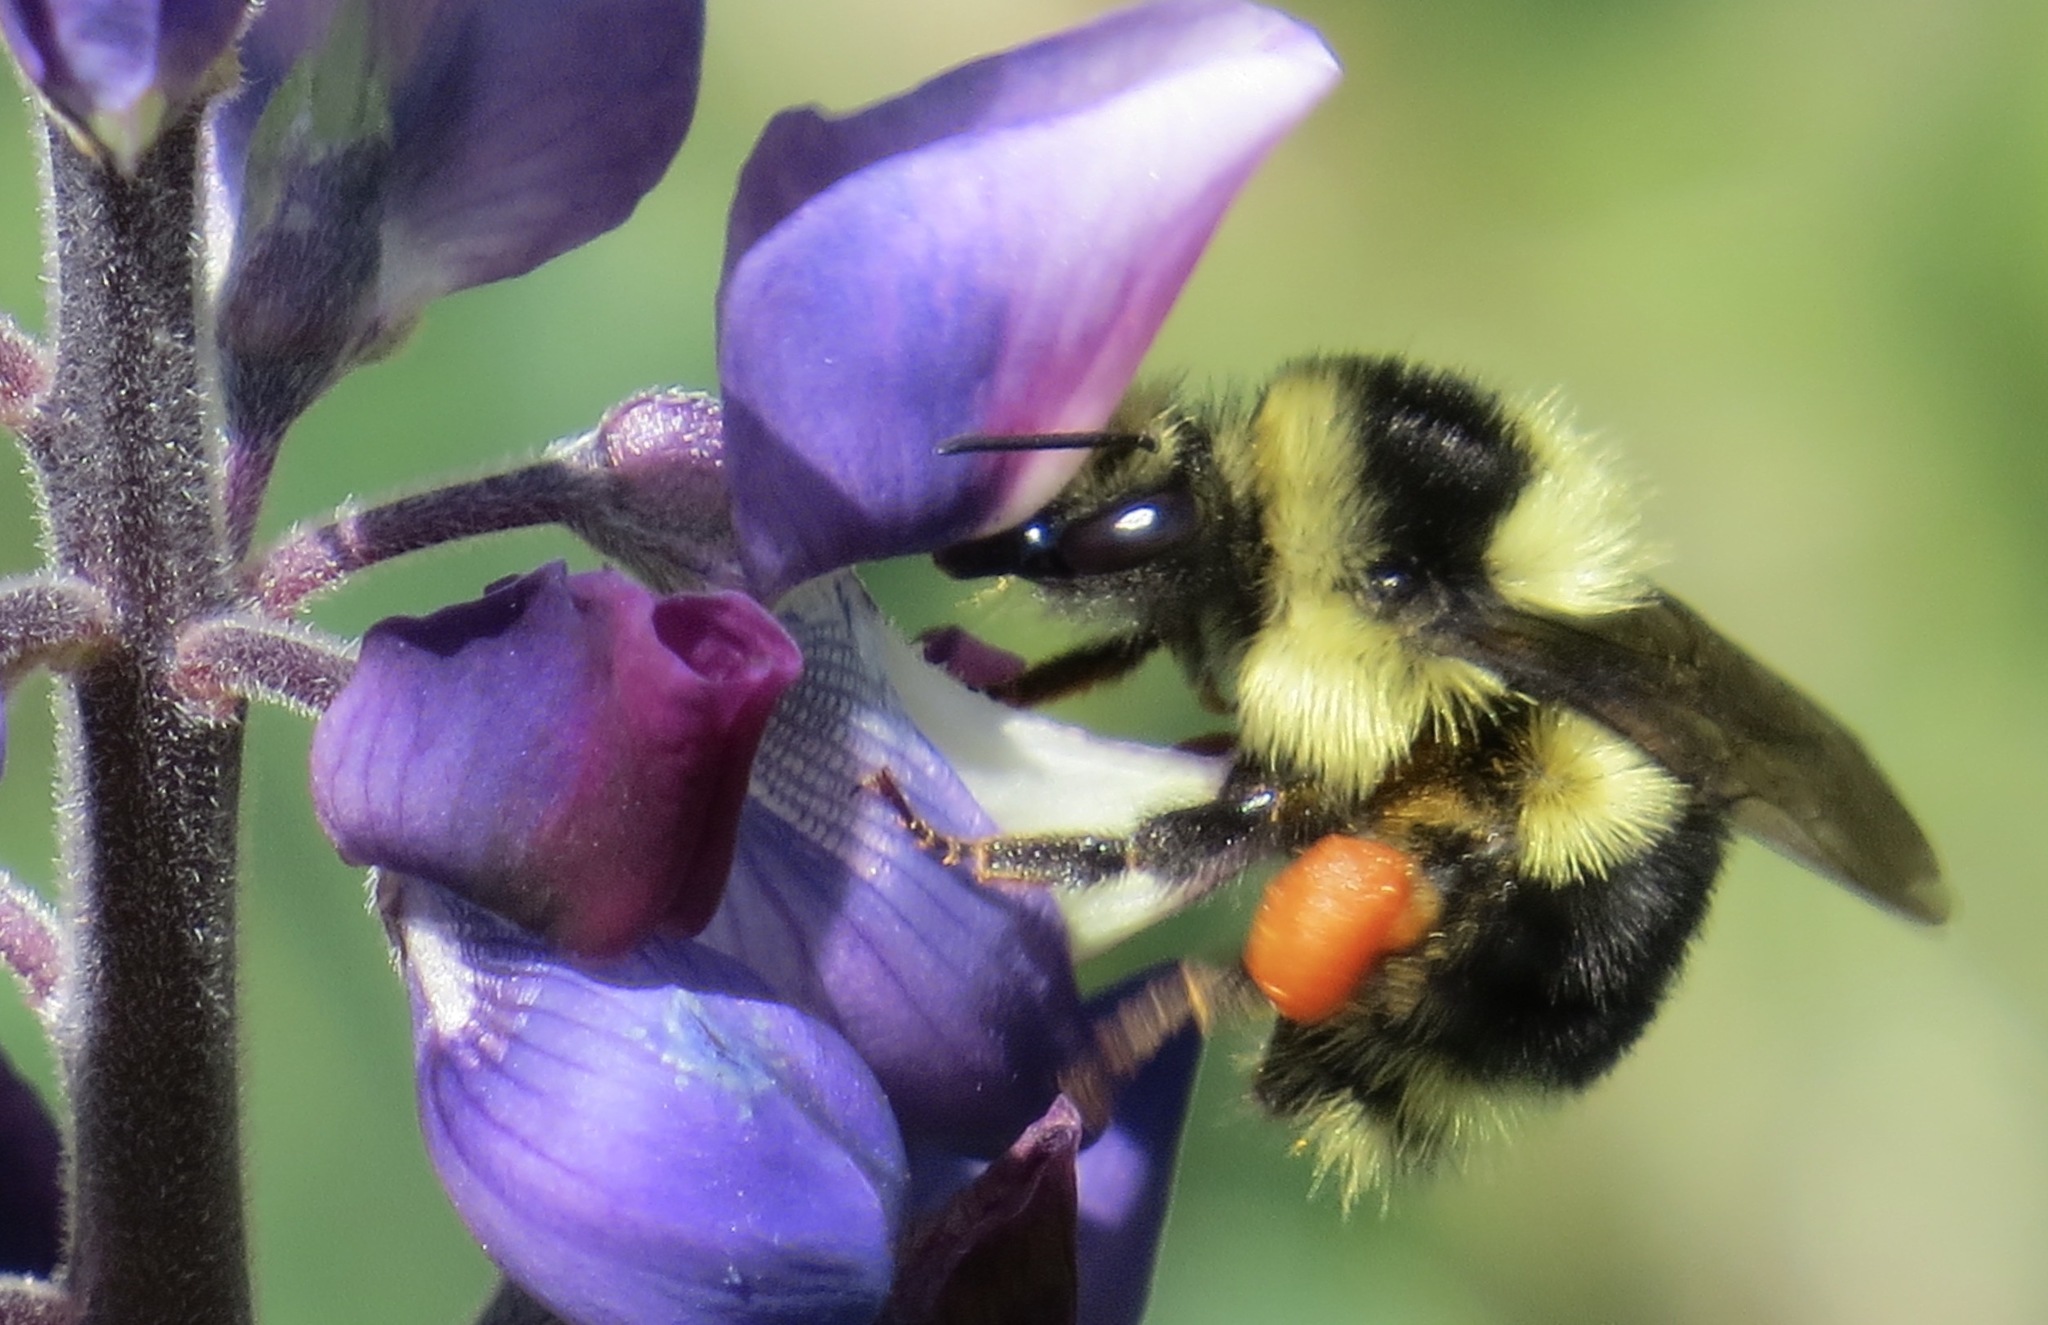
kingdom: Animalia
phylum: Arthropoda
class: Insecta
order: Hymenoptera
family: Apidae
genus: Bombus
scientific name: Bombus melanopygus
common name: Black tail bumble bee
